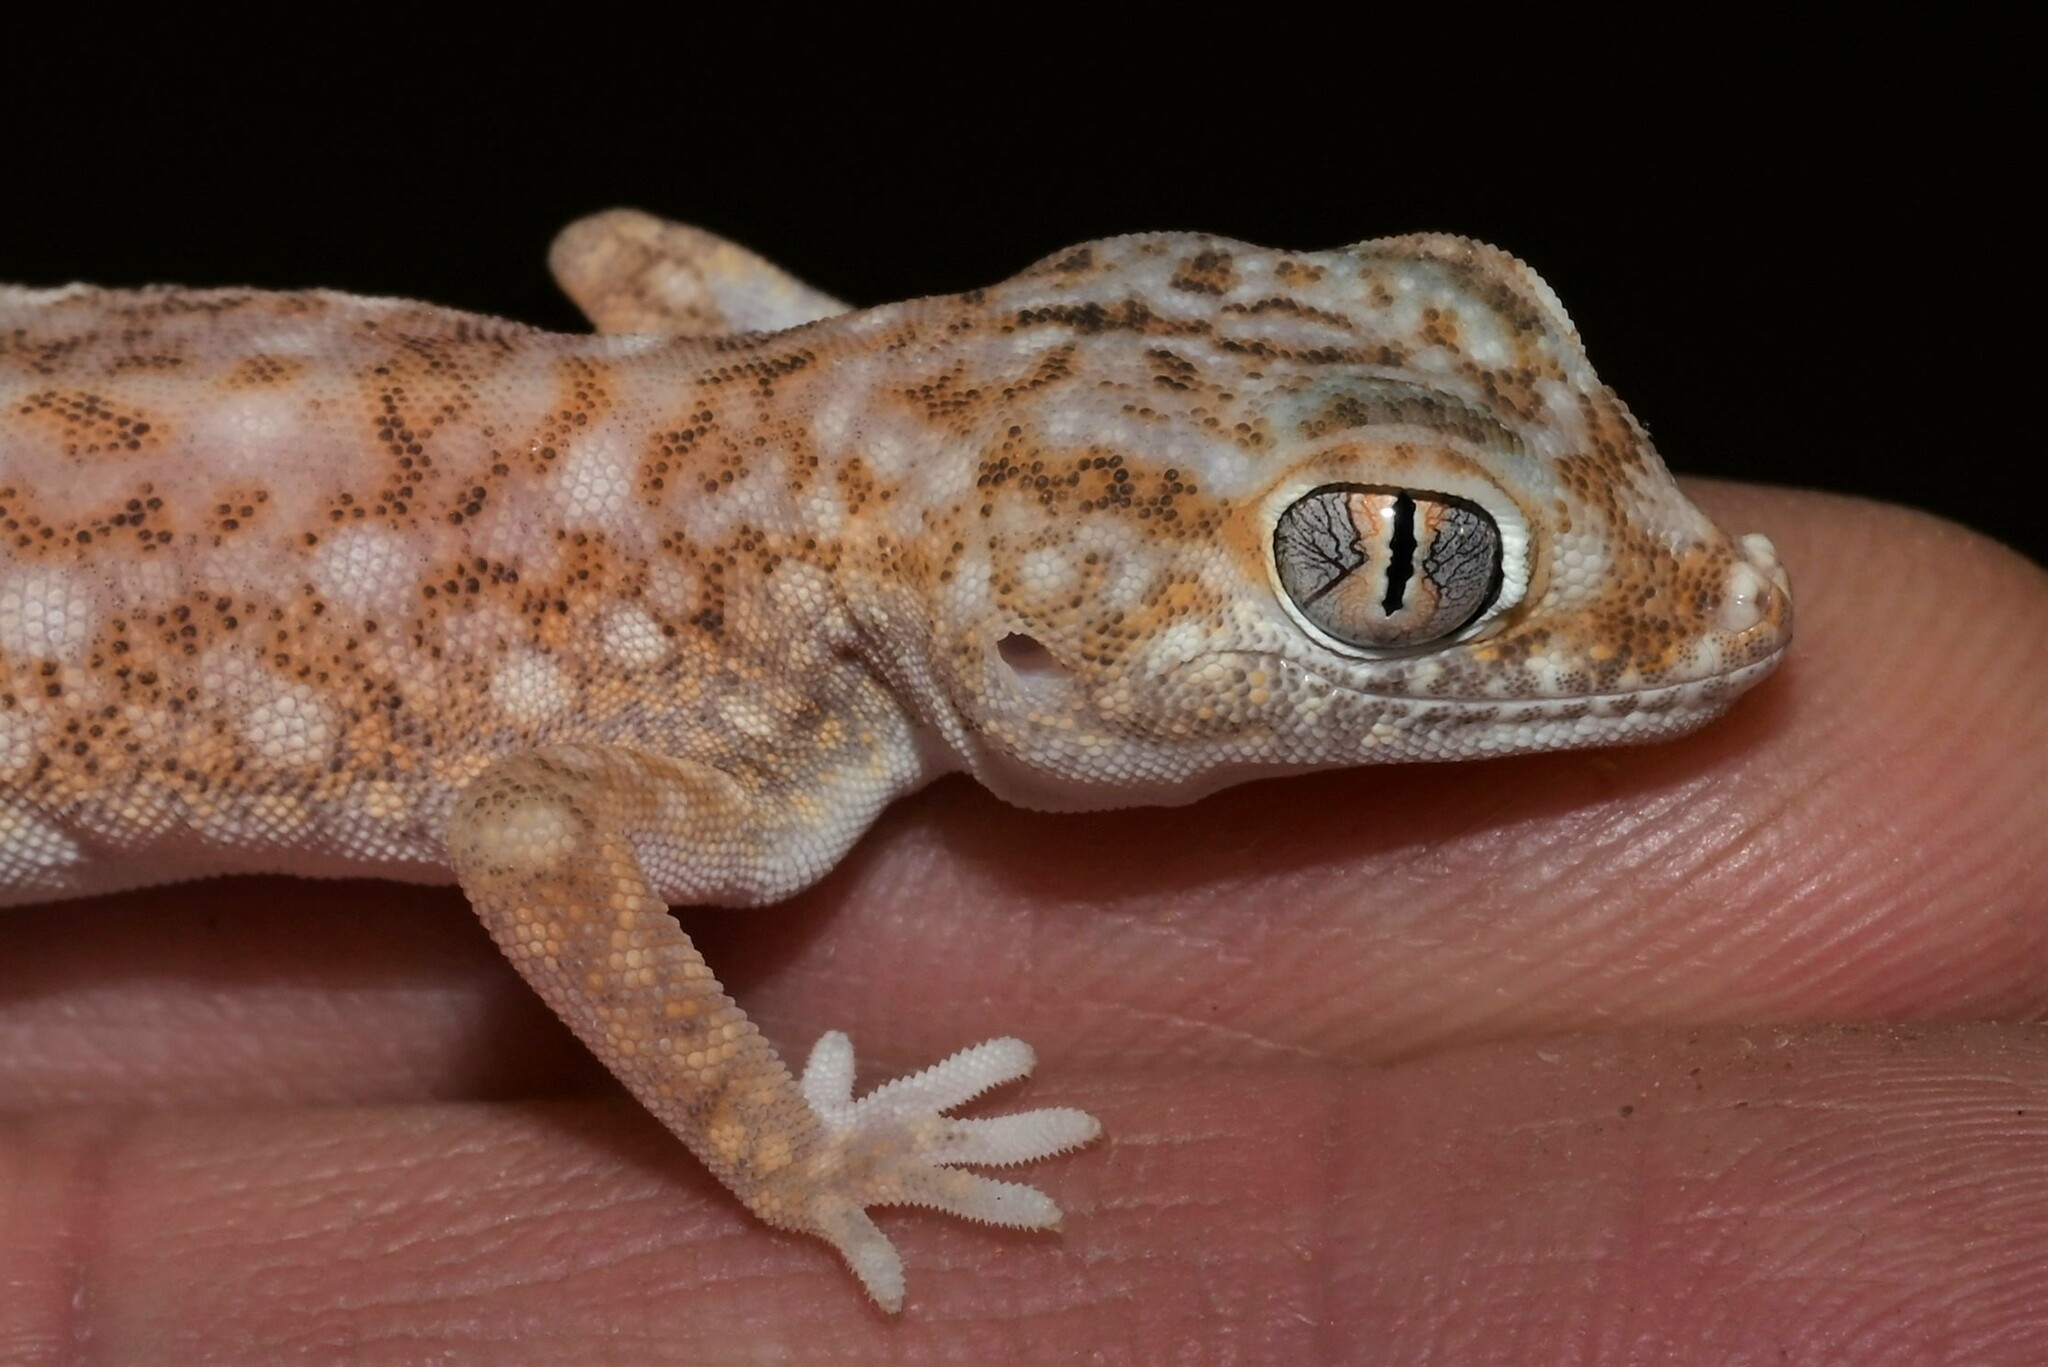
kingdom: Animalia
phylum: Chordata
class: Squamata
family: Gekkonidae
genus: Stenodactylus
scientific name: Stenodactylus slevini
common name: Slevin's sand gecko
